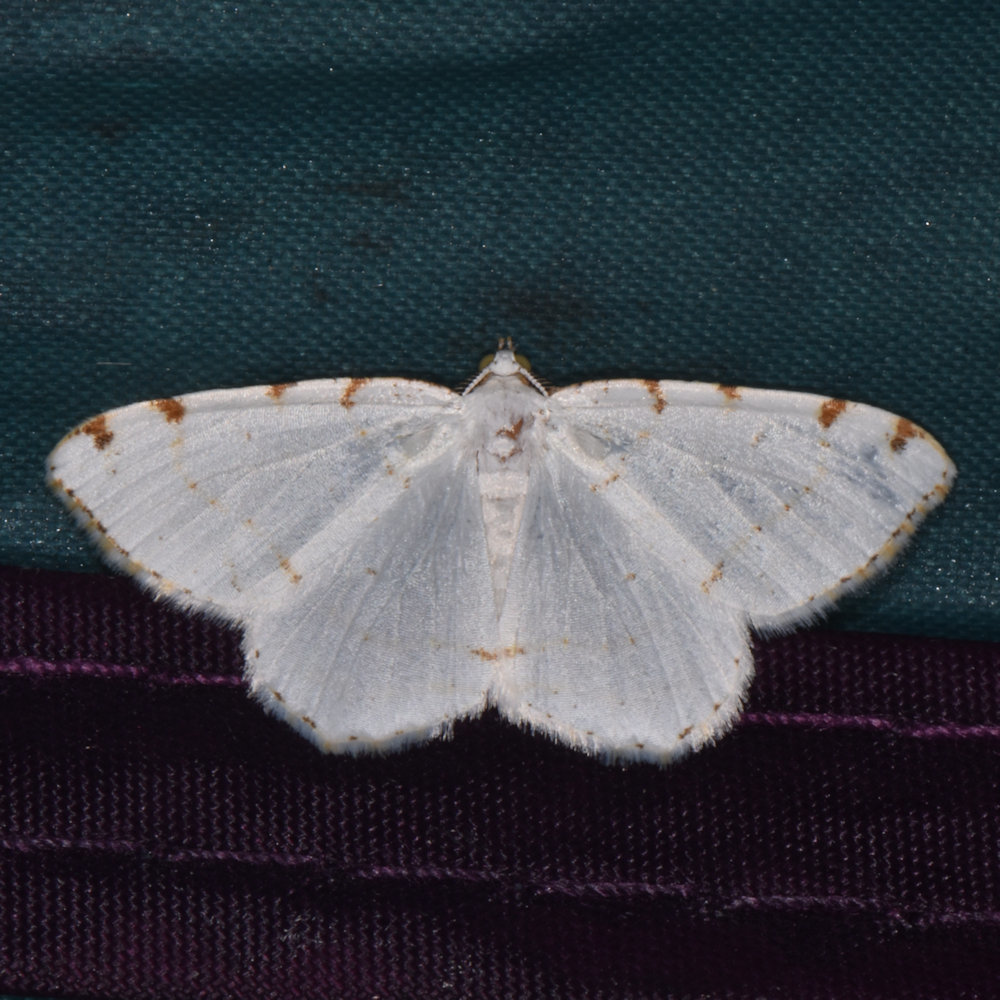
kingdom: Animalia
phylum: Arthropoda
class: Insecta
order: Lepidoptera
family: Geometridae
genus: Macaria
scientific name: Macaria pustularia
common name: Lesser maple spanworm moth
